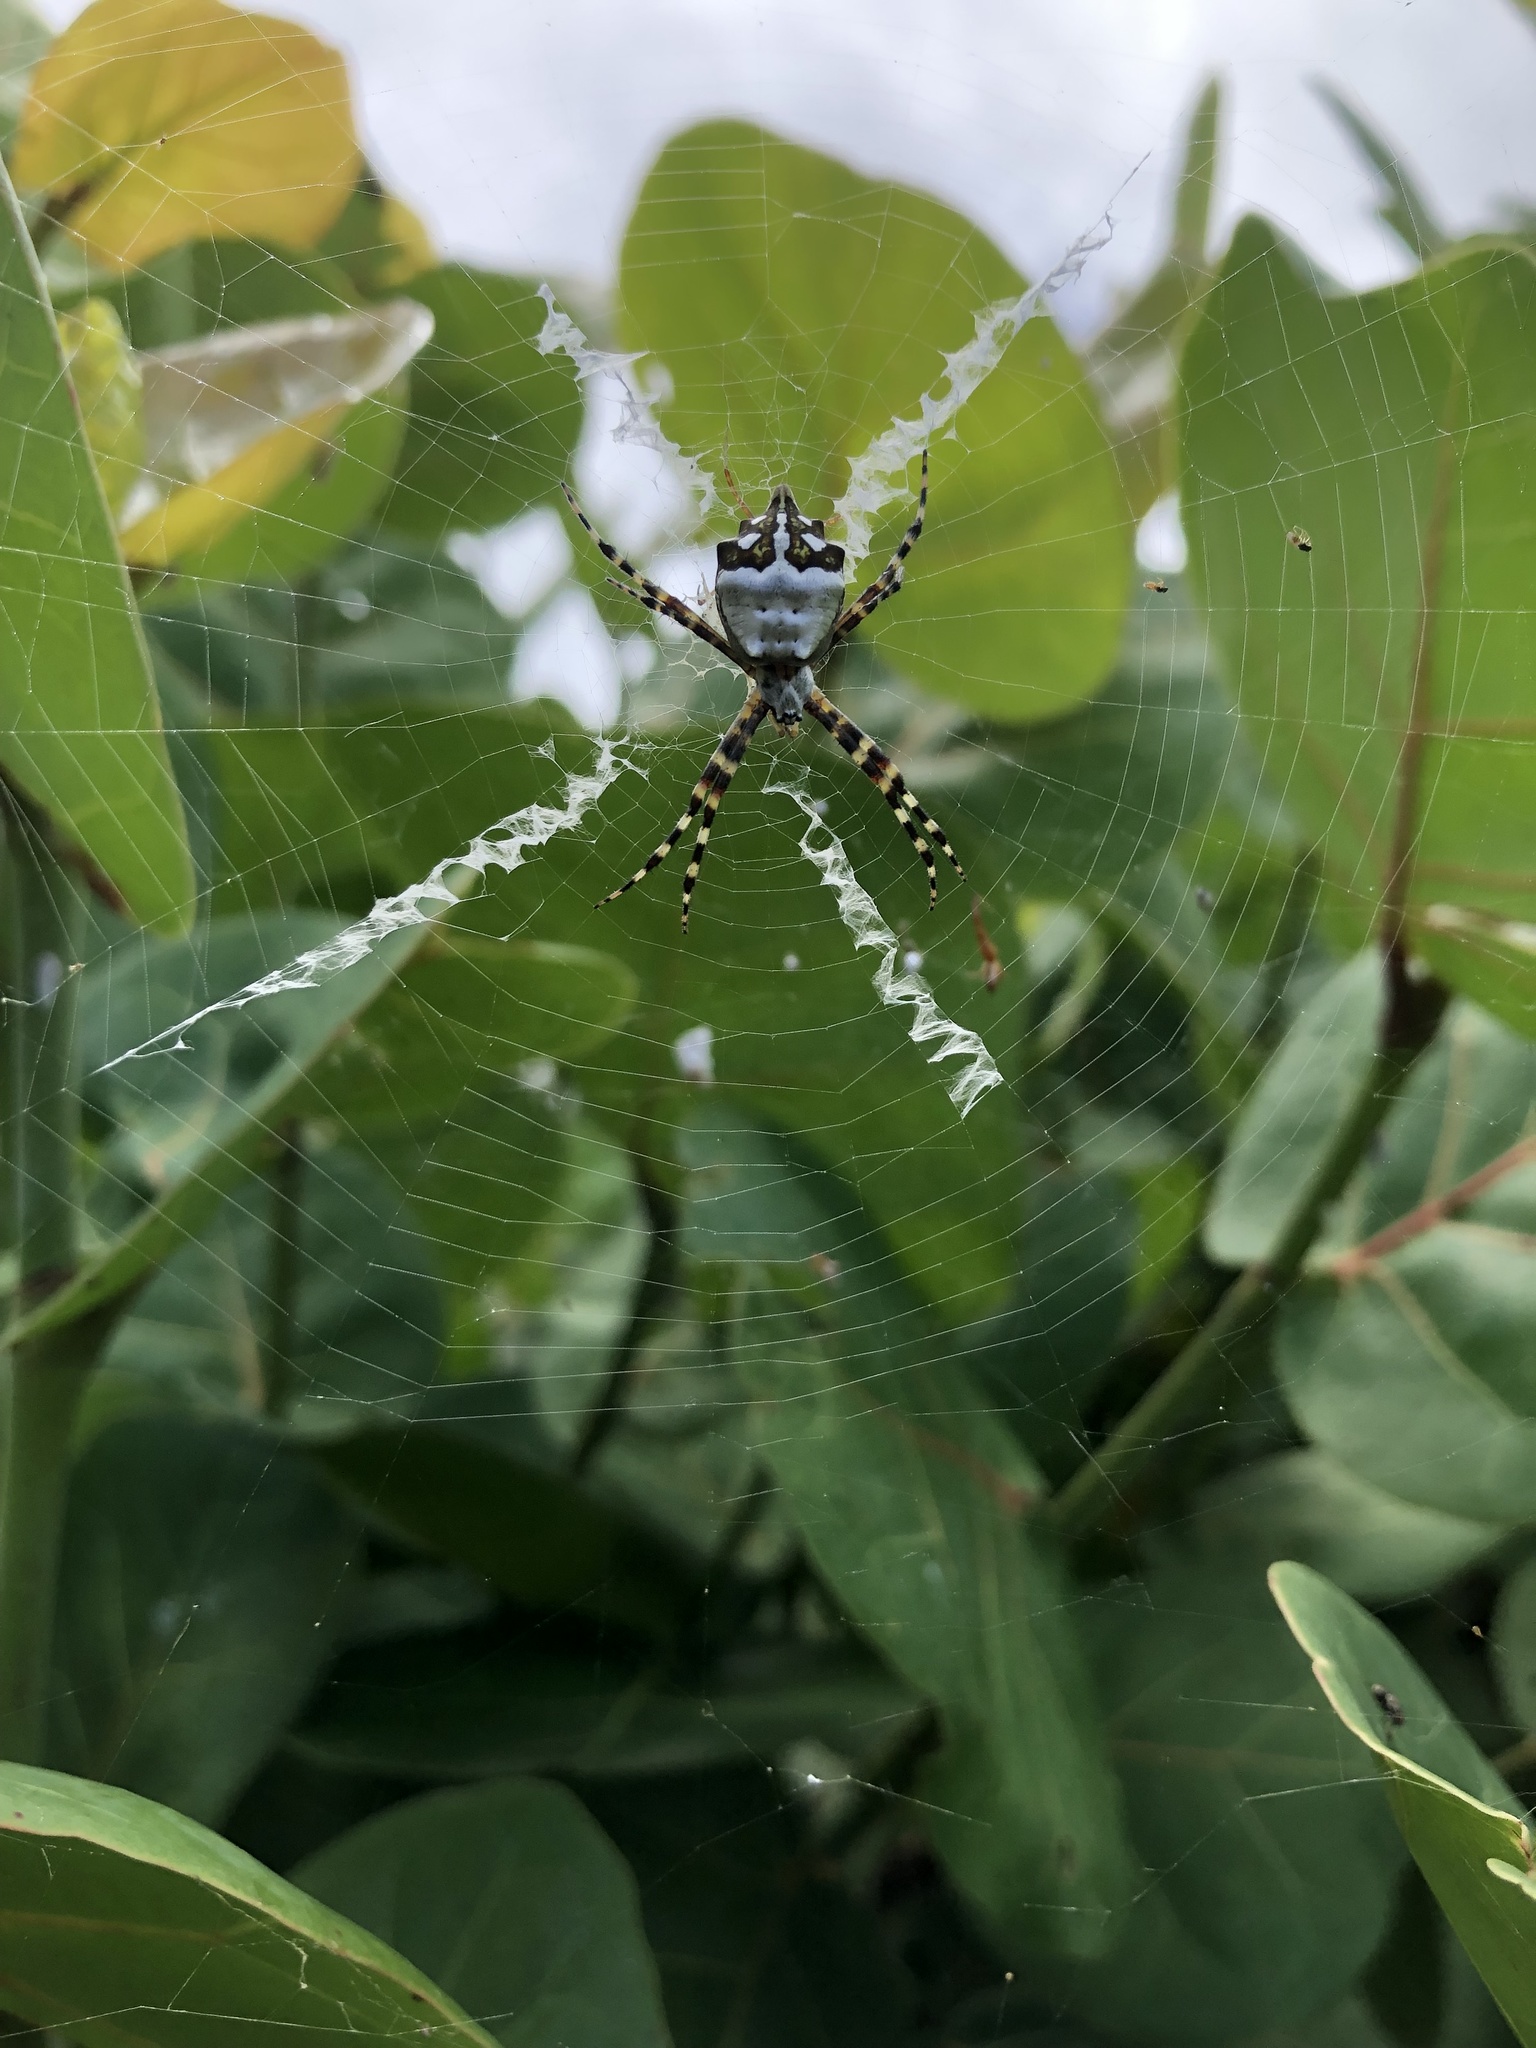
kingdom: Animalia
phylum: Arthropoda
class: Arachnida
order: Araneae
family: Araneidae
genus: Argiope
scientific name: Argiope argentata
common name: Orb weavers
